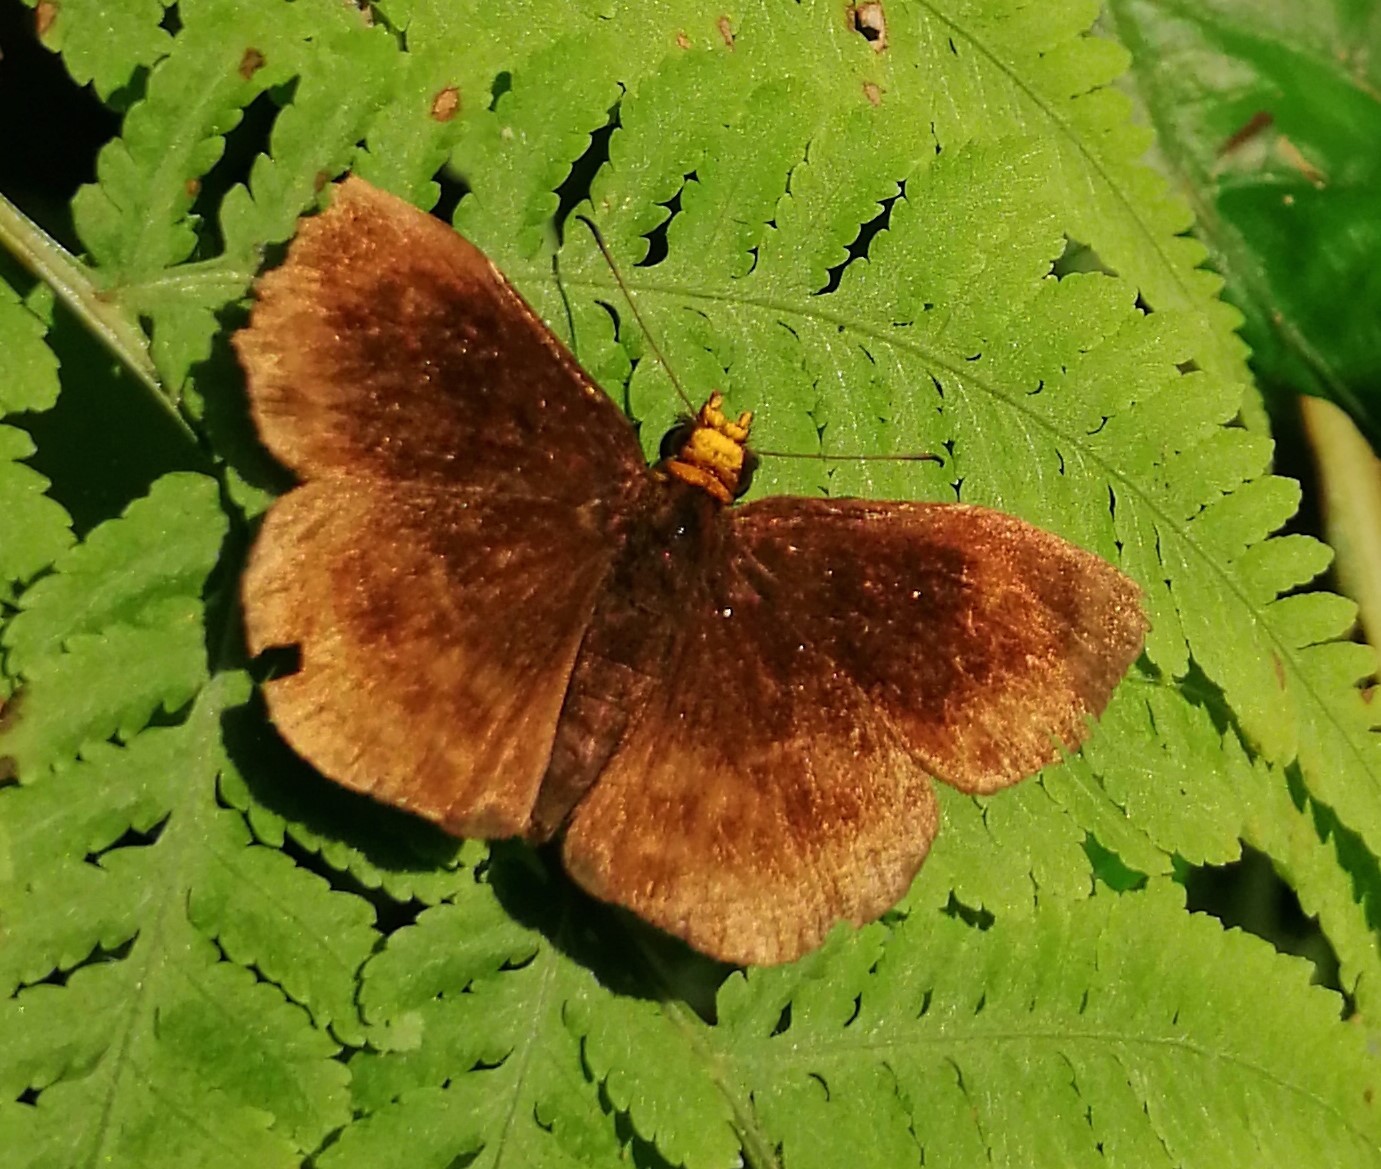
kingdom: Animalia
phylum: Arthropoda
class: Insecta
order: Lepidoptera
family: Hesperiidae
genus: Bolla
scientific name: Bolla cupreiceps
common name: Golden-headed bolla
